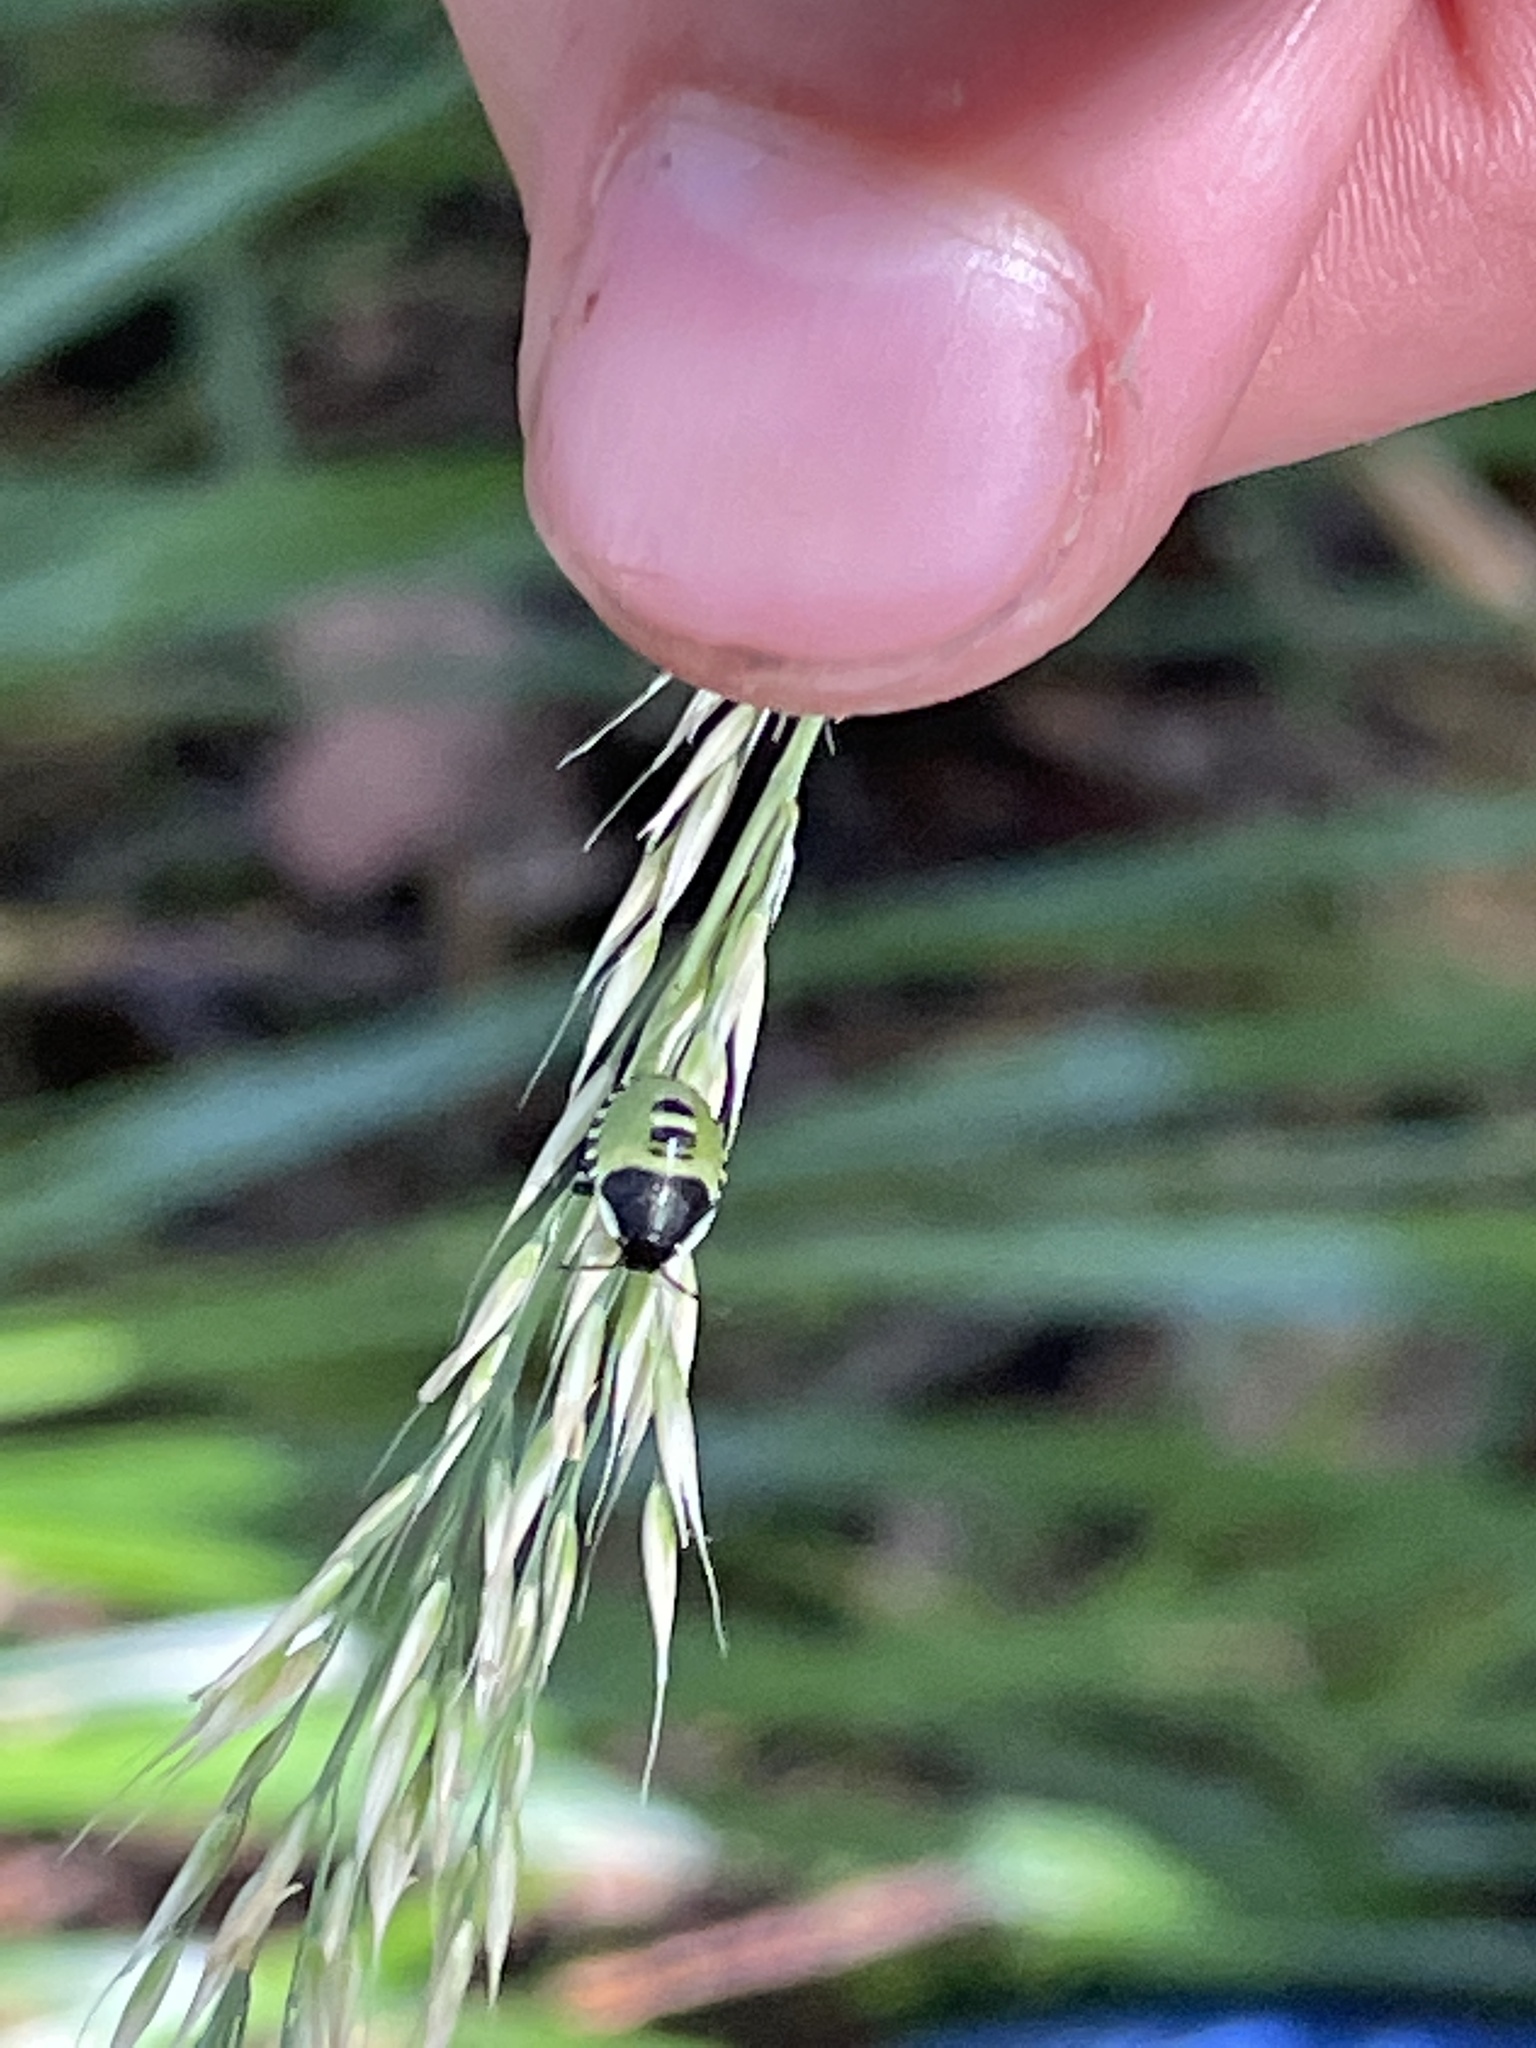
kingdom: Animalia
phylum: Arthropoda
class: Insecta
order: Hemiptera
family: Pentatomidae
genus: Palomena
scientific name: Palomena prasina
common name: Green shieldbug
